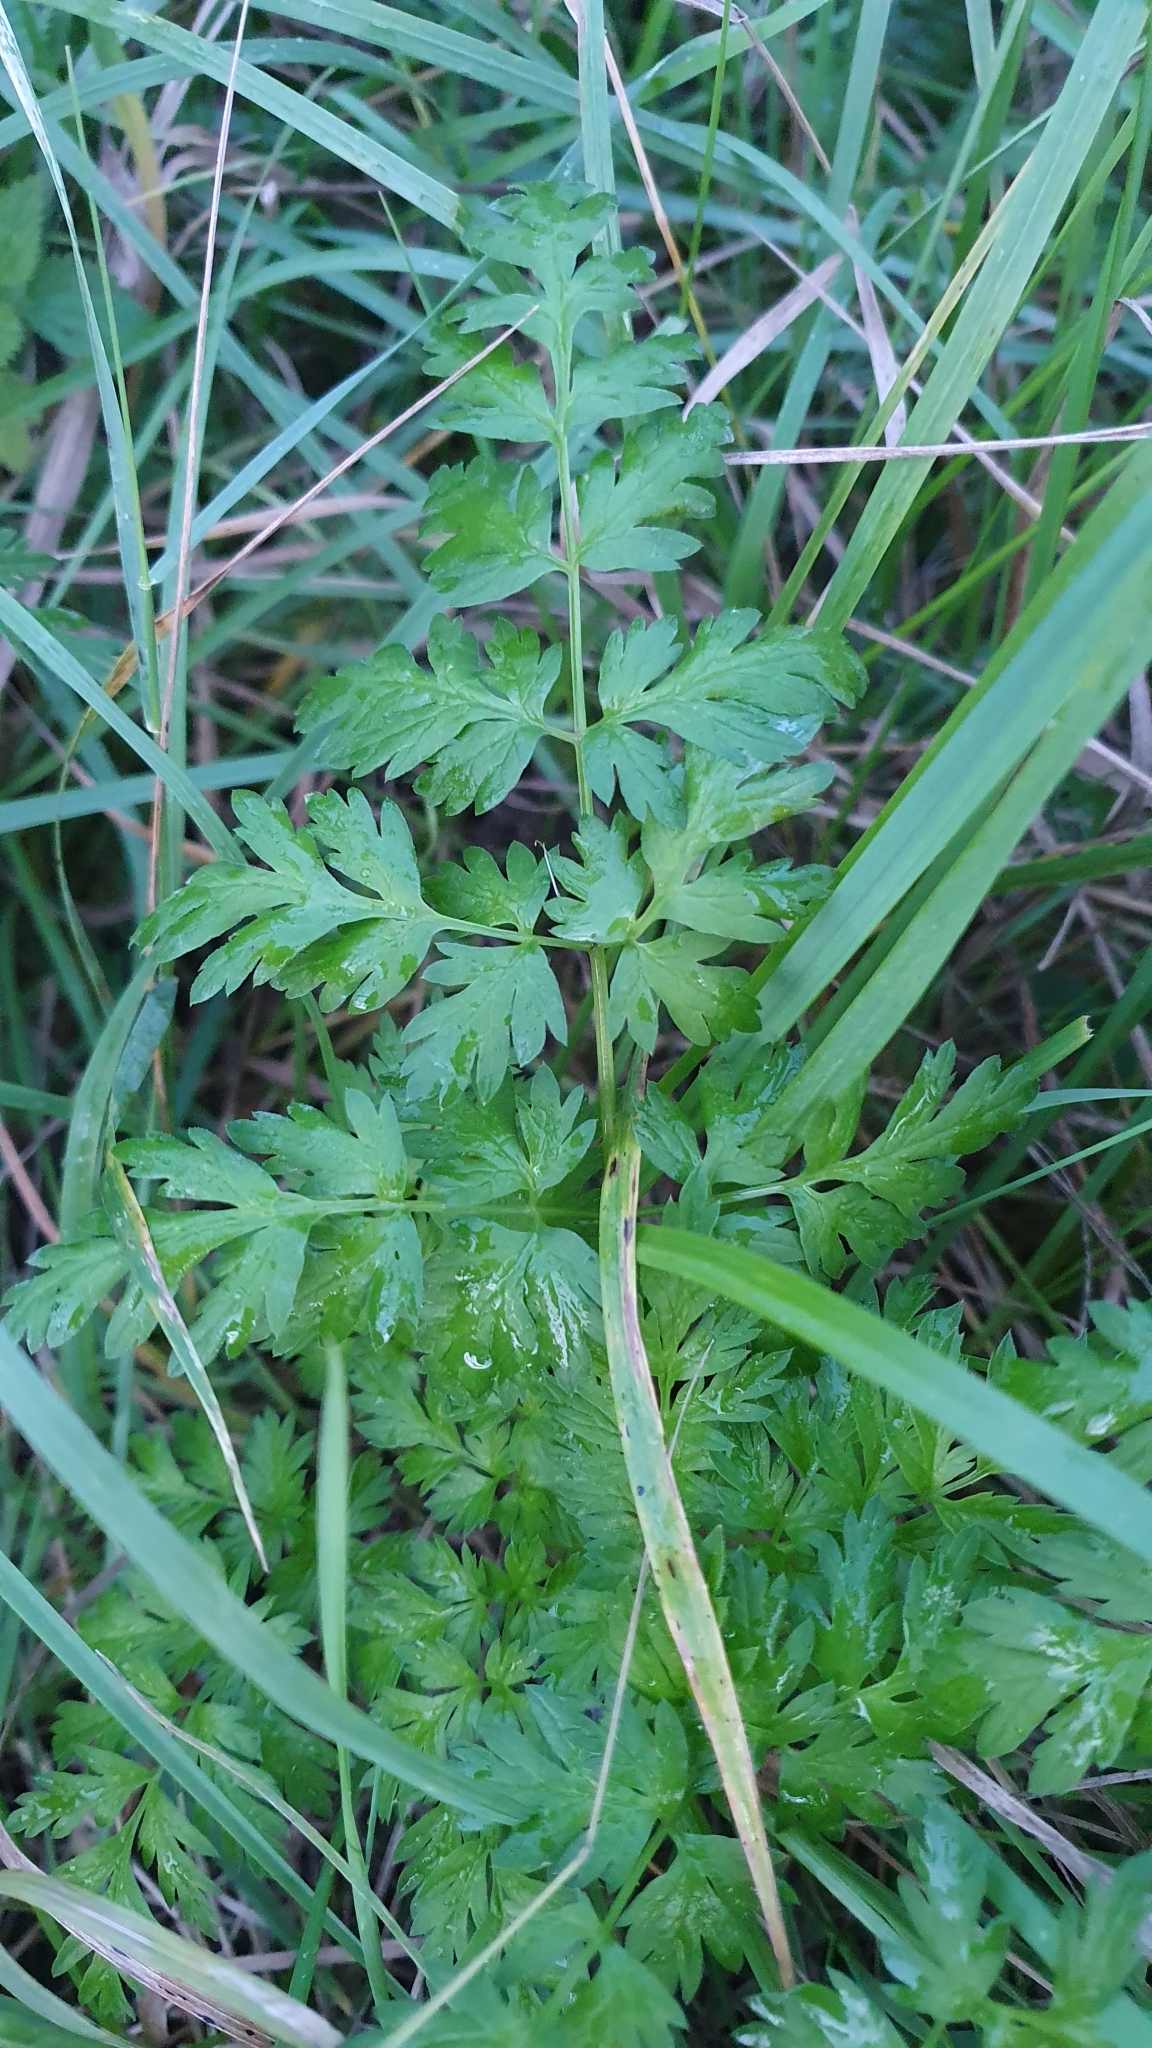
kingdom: Plantae
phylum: Tracheophyta
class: Magnoliopsida
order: Apiales
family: Apiaceae
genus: Anthriscus
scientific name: Anthriscus sylvestris
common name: Cow parsley
